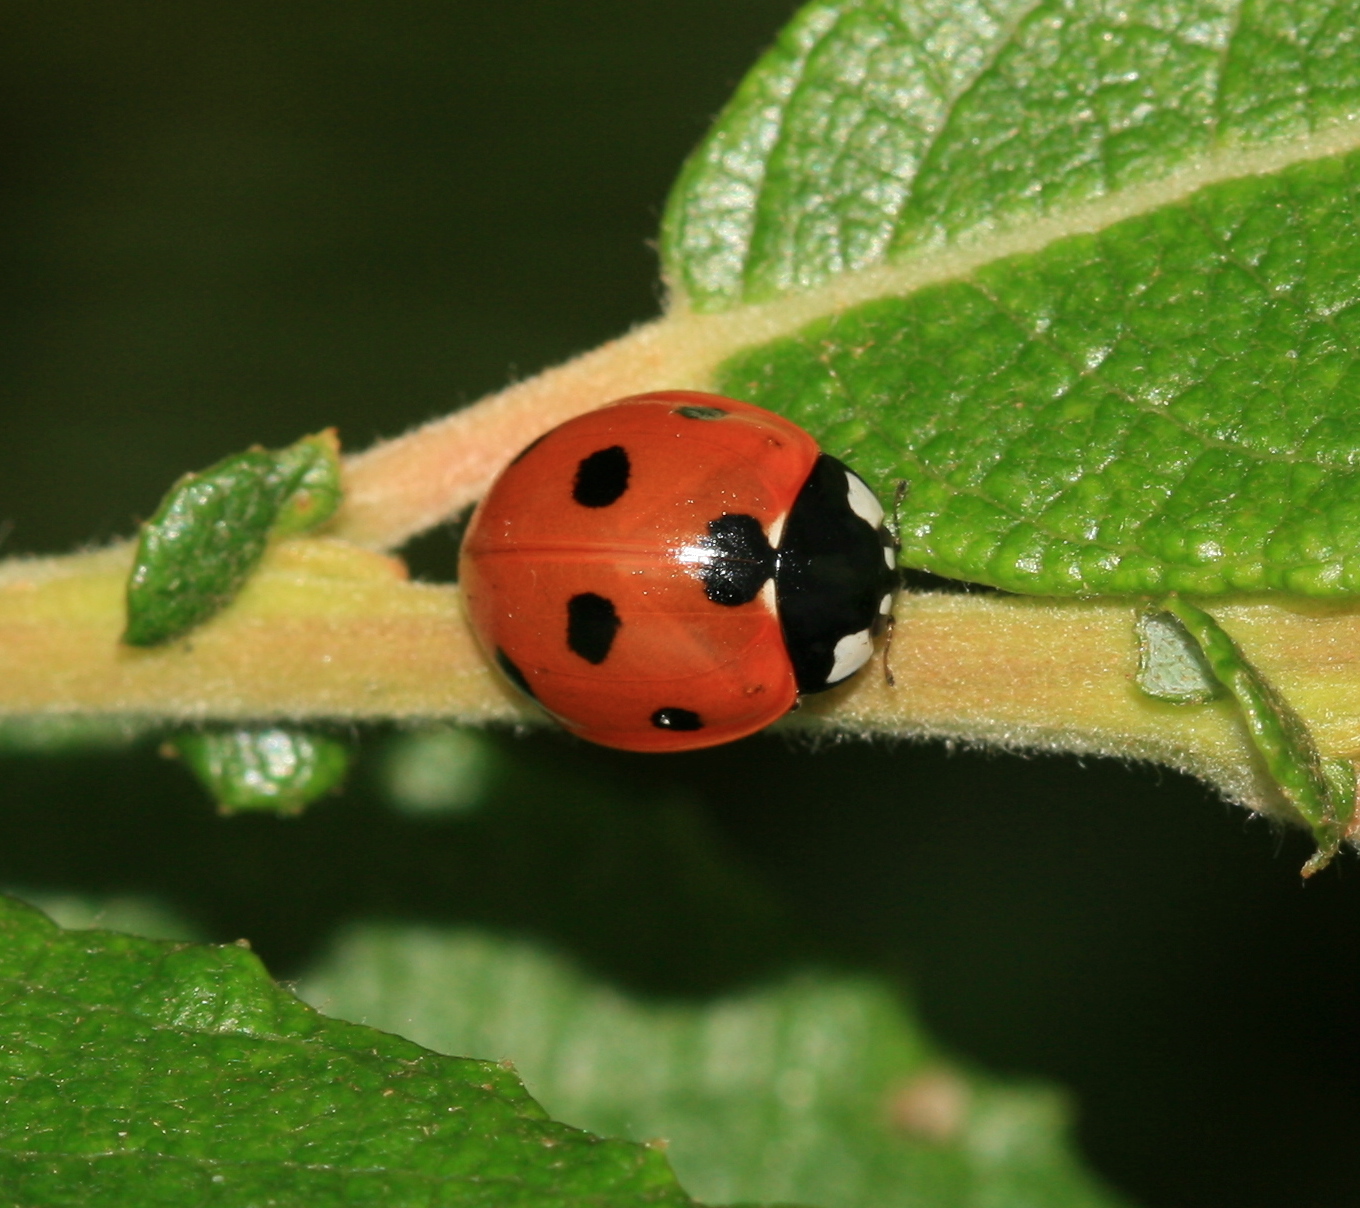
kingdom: Animalia
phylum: Arthropoda
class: Insecta
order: Coleoptera
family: Coccinellidae
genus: Coccinella
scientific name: Coccinella septempunctata
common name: Sevenspotted lady beetle
